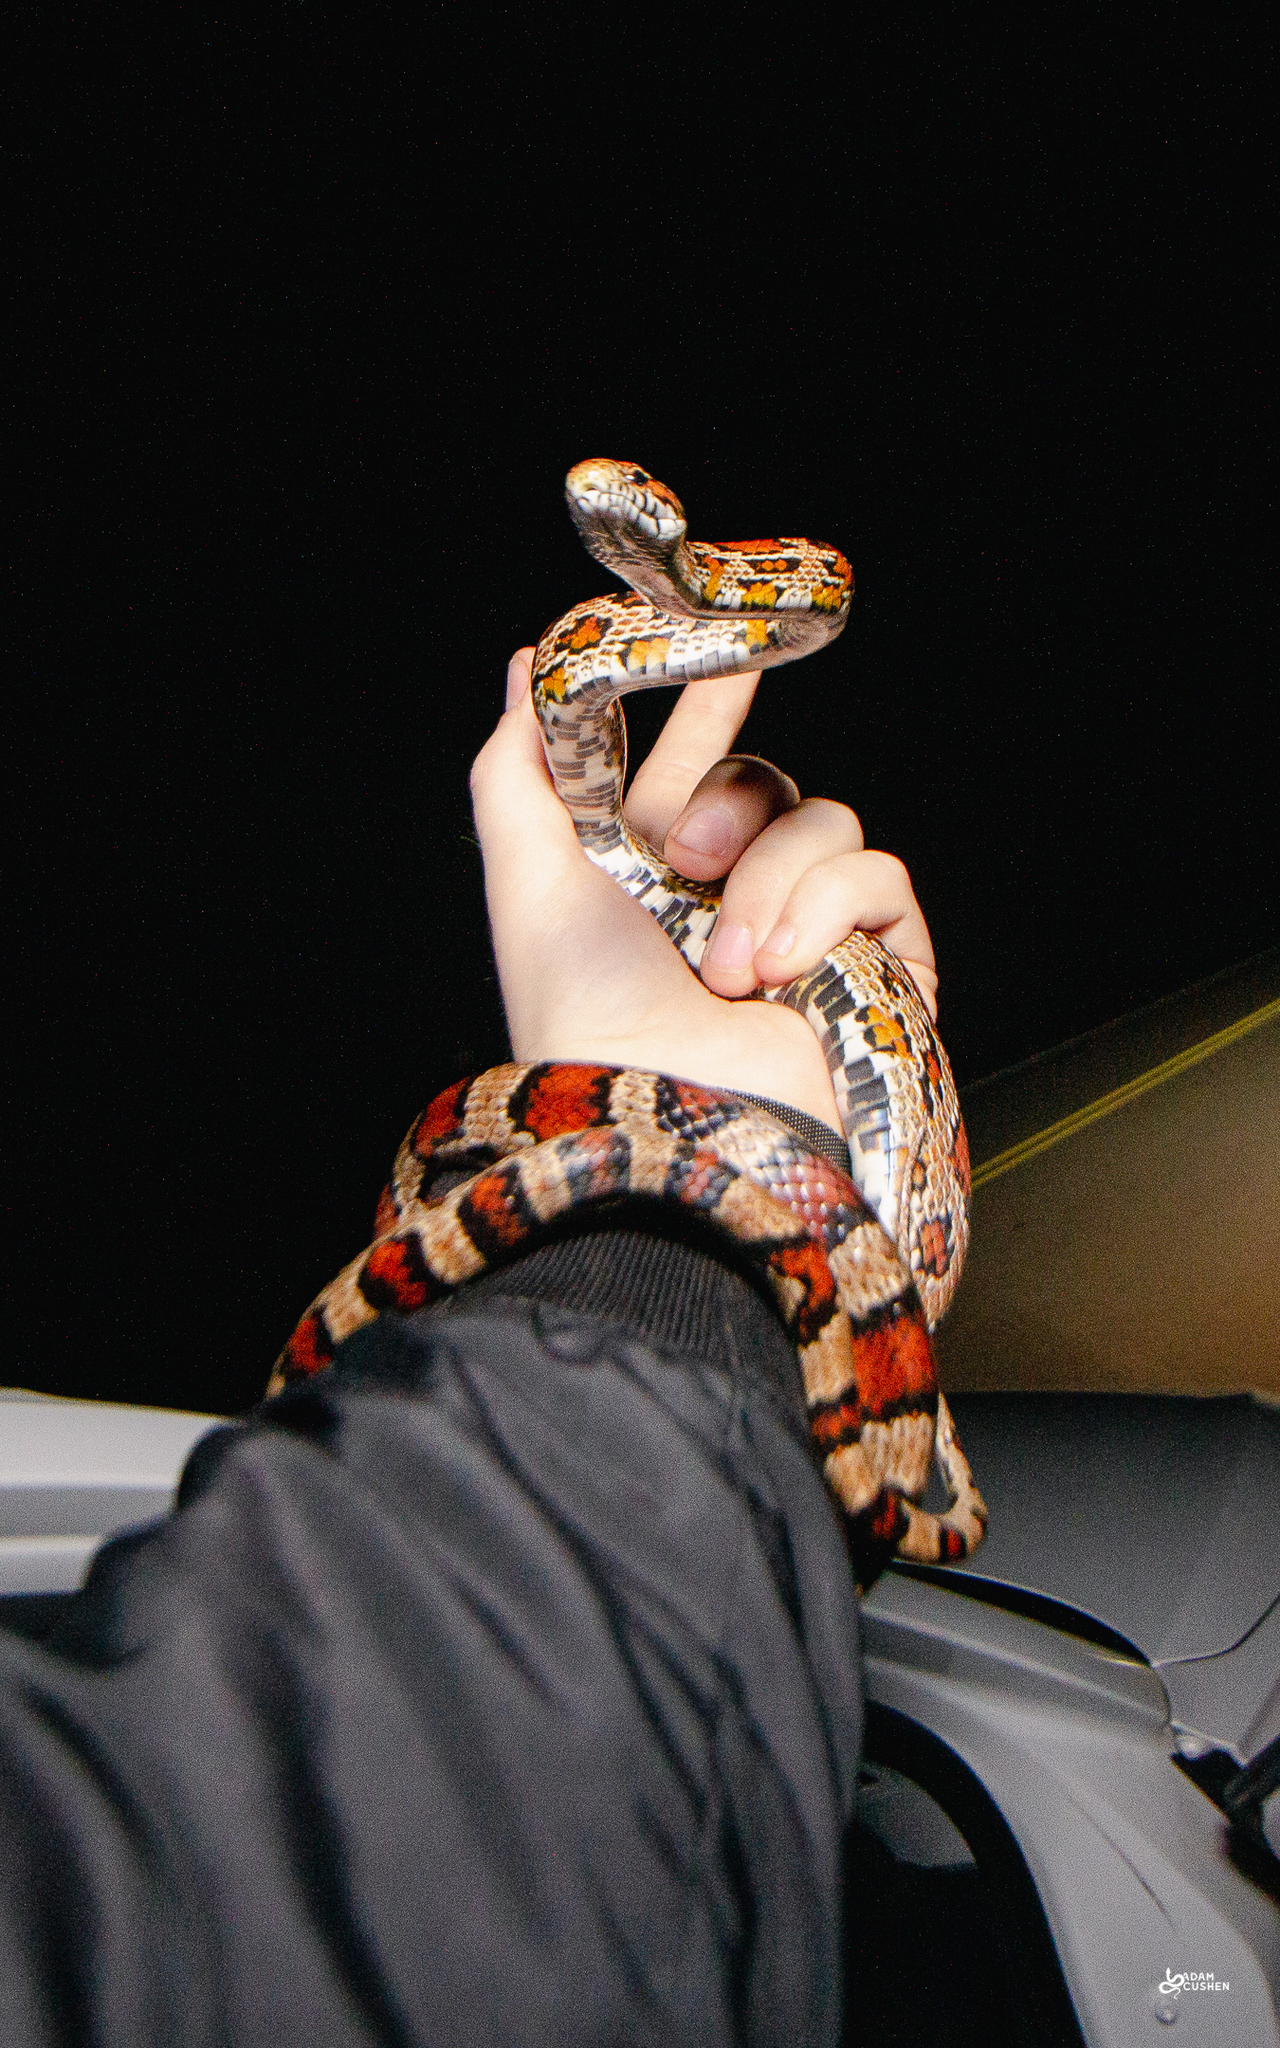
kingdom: Animalia
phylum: Chordata
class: Squamata
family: Colubridae
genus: Pantherophis
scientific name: Pantherophis guttatus
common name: Red cornsnake
